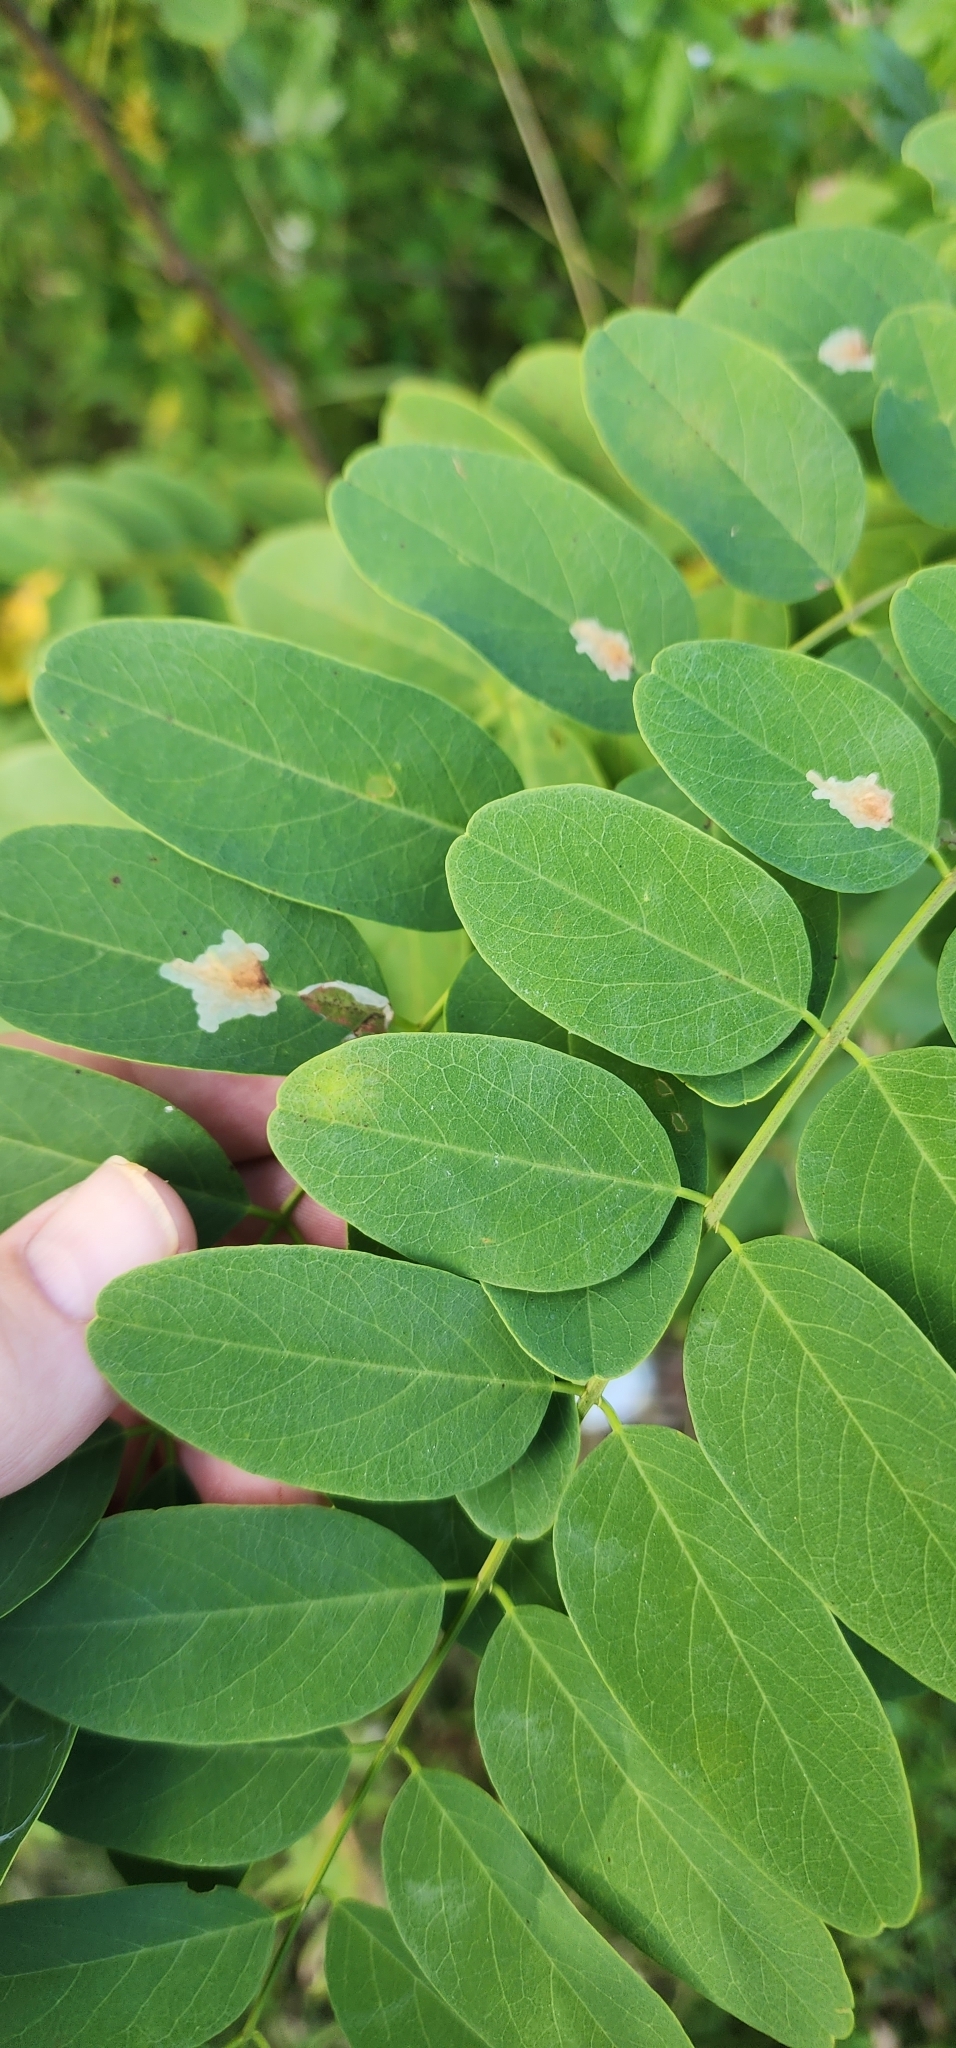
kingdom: Plantae
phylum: Tracheophyta
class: Magnoliopsida
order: Fabales
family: Fabaceae
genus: Robinia
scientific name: Robinia pseudoacacia
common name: Black locust
